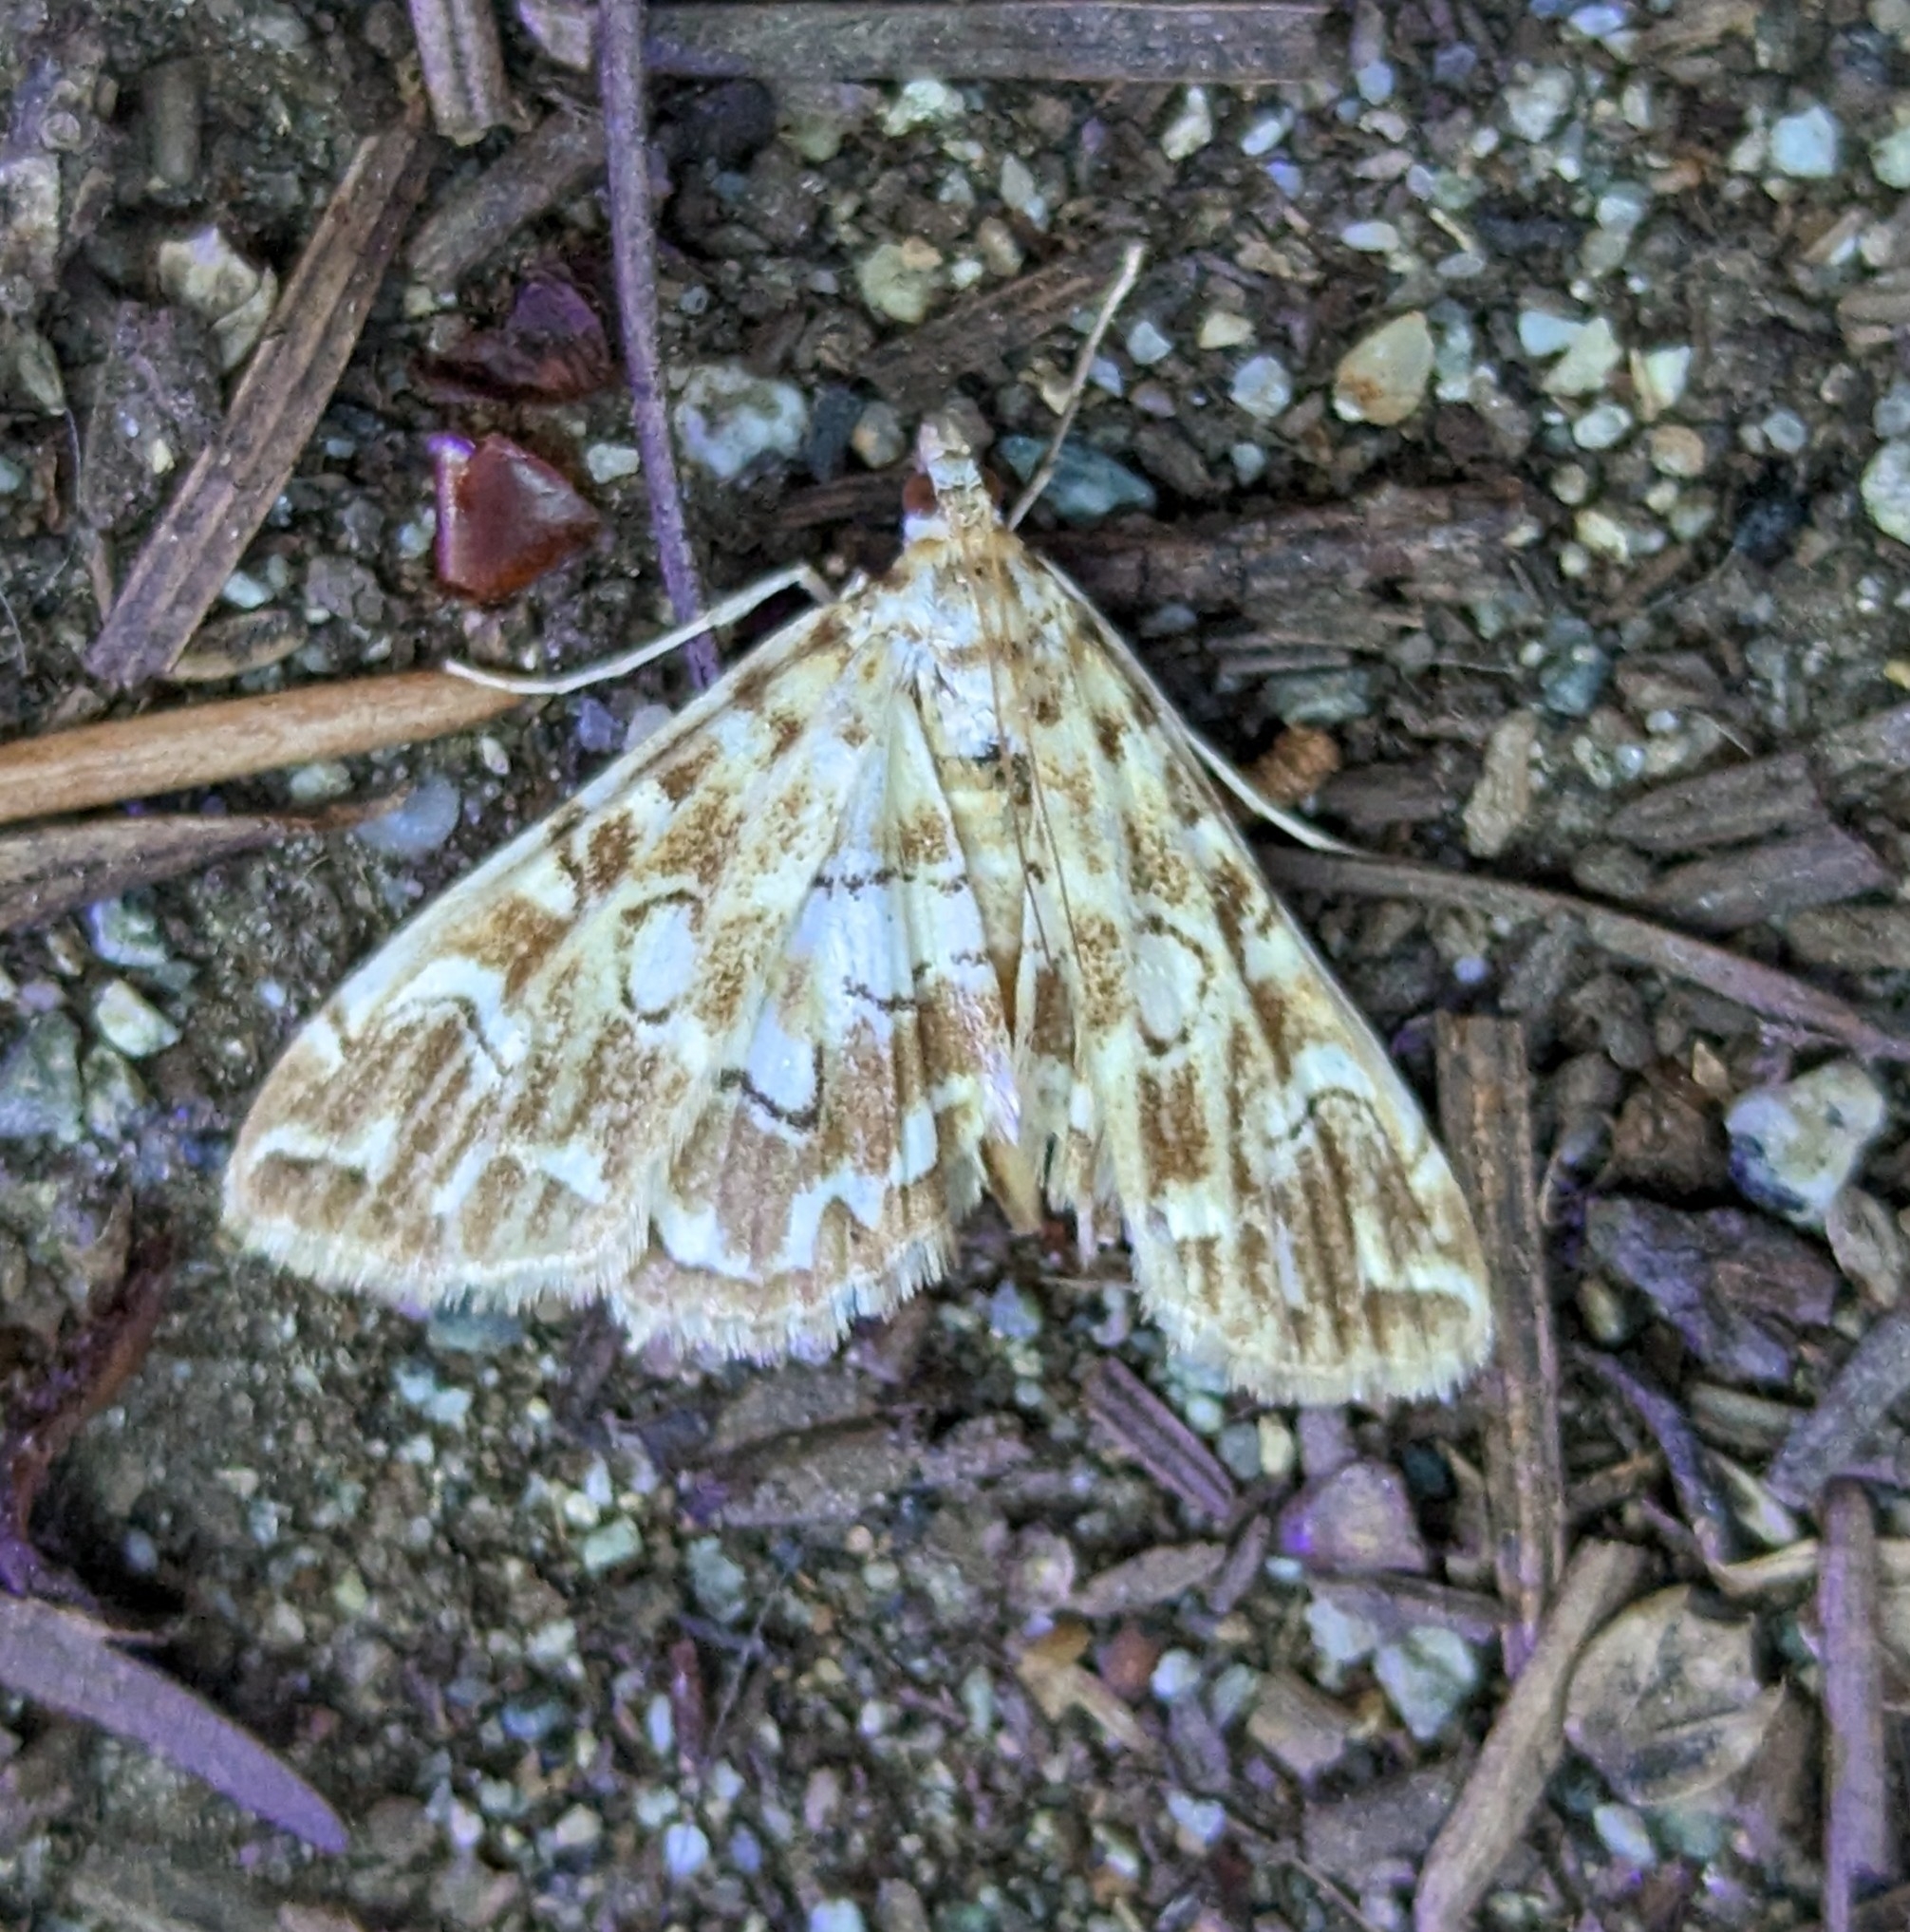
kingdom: Animalia
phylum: Arthropoda
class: Insecta
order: Lepidoptera
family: Crambidae
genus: Elophila
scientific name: Elophila icciusalis
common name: Pondside pyralid moth
